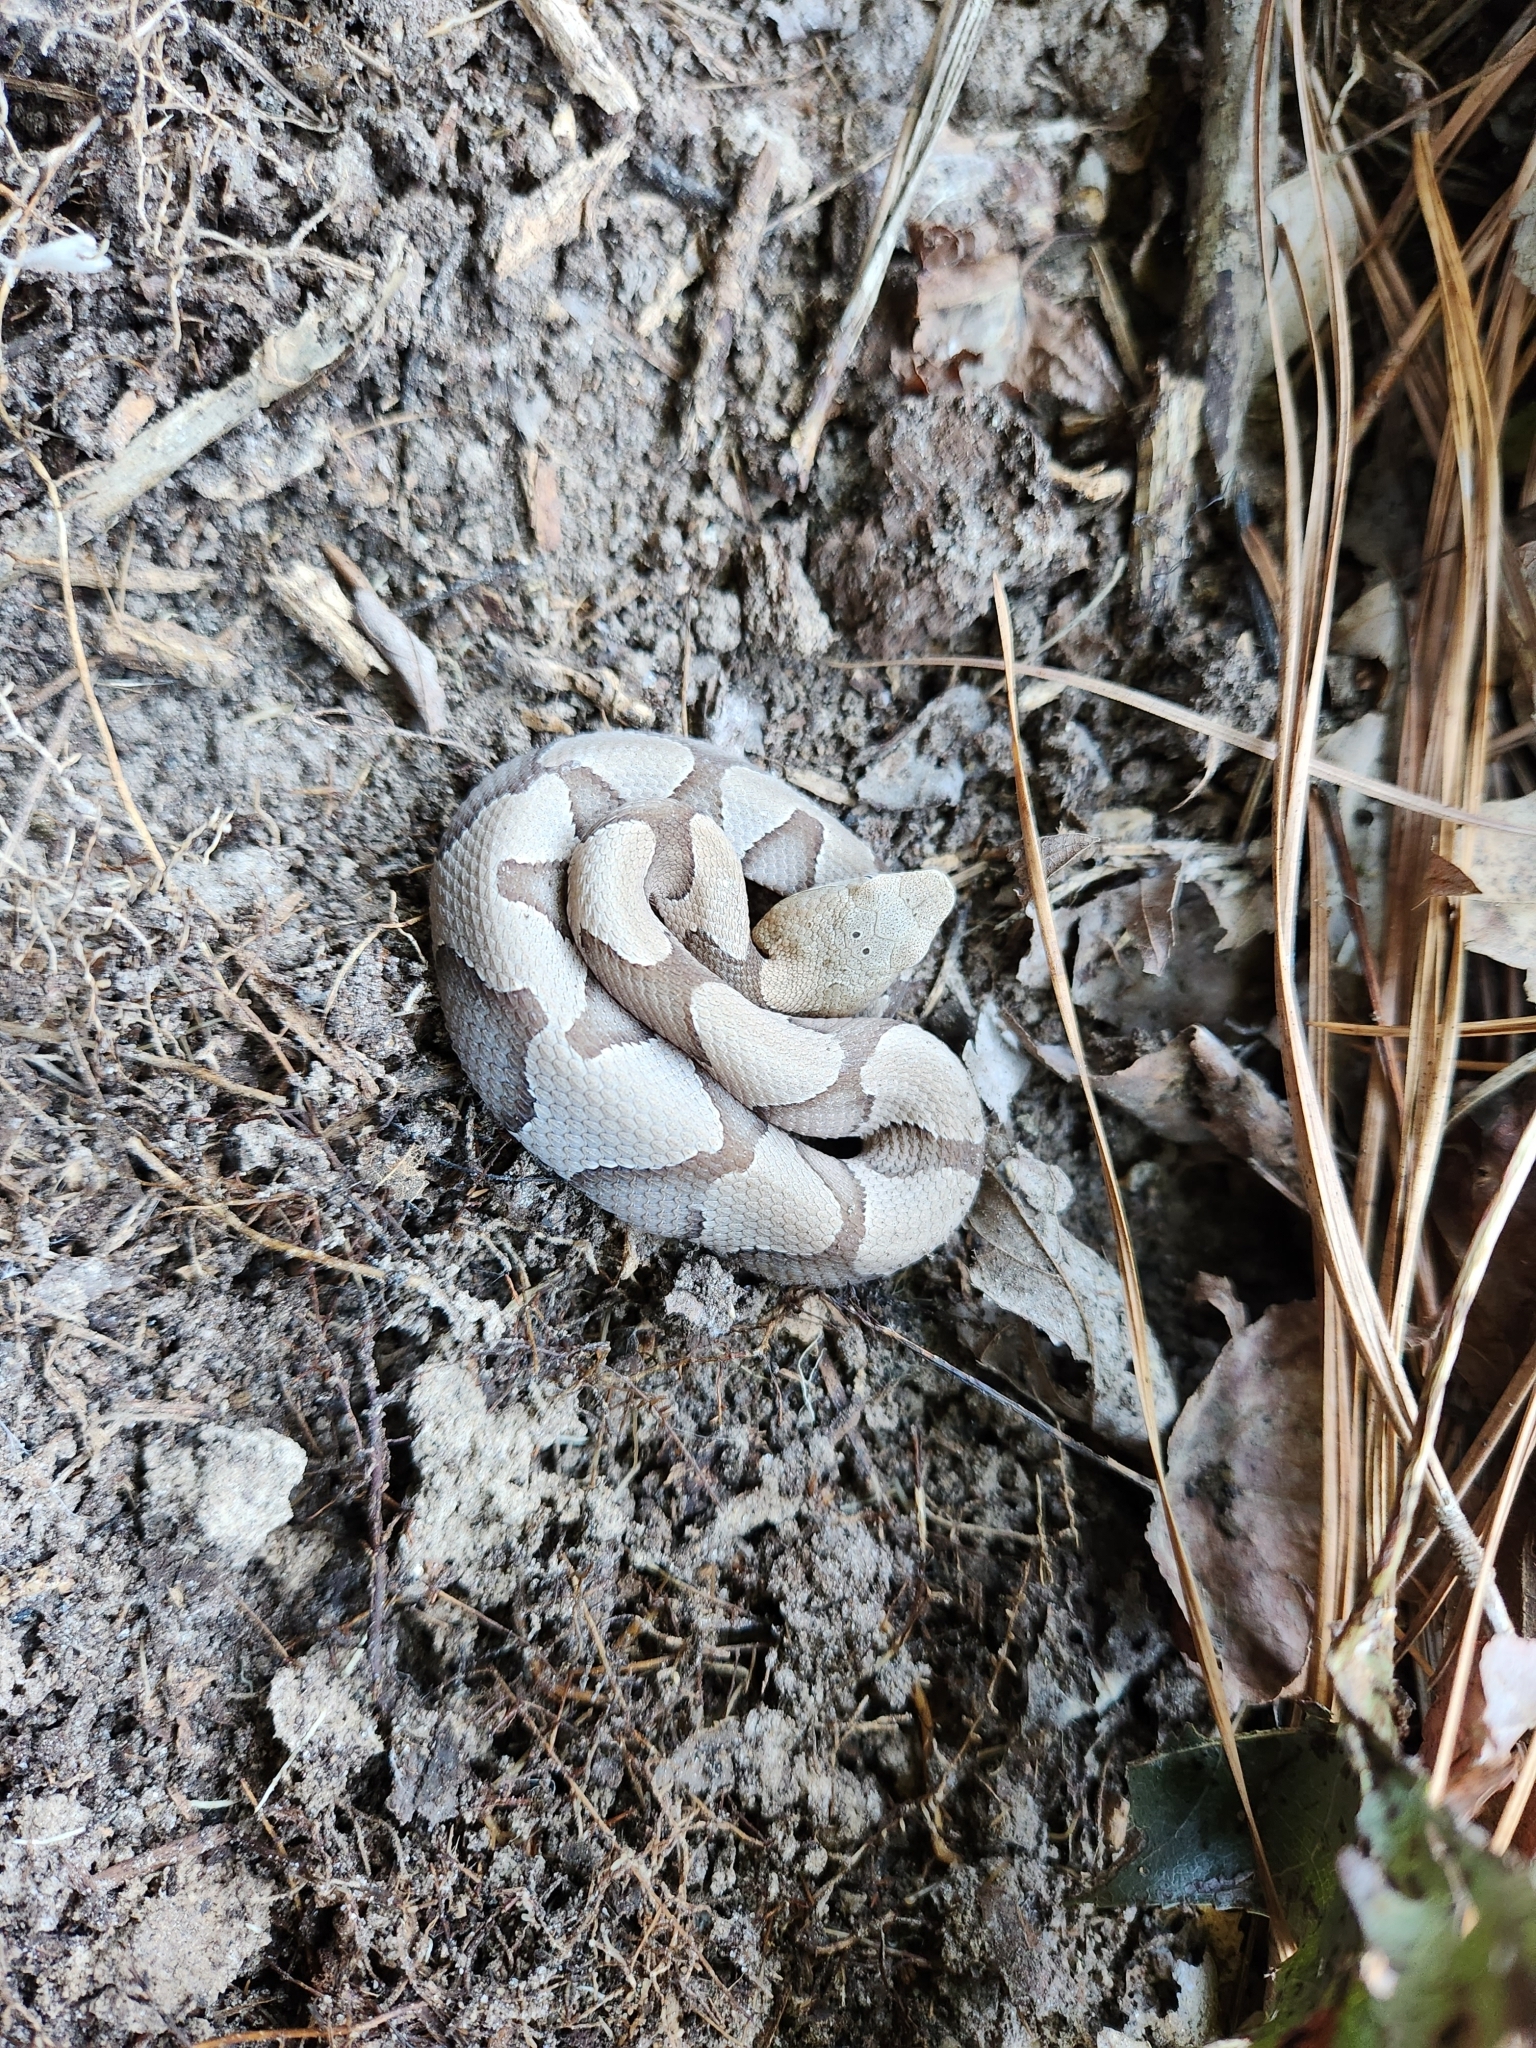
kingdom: Animalia
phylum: Chordata
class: Squamata
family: Viperidae
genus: Agkistrodon
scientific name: Agkistrodon contortrix
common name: Northern copperhead
